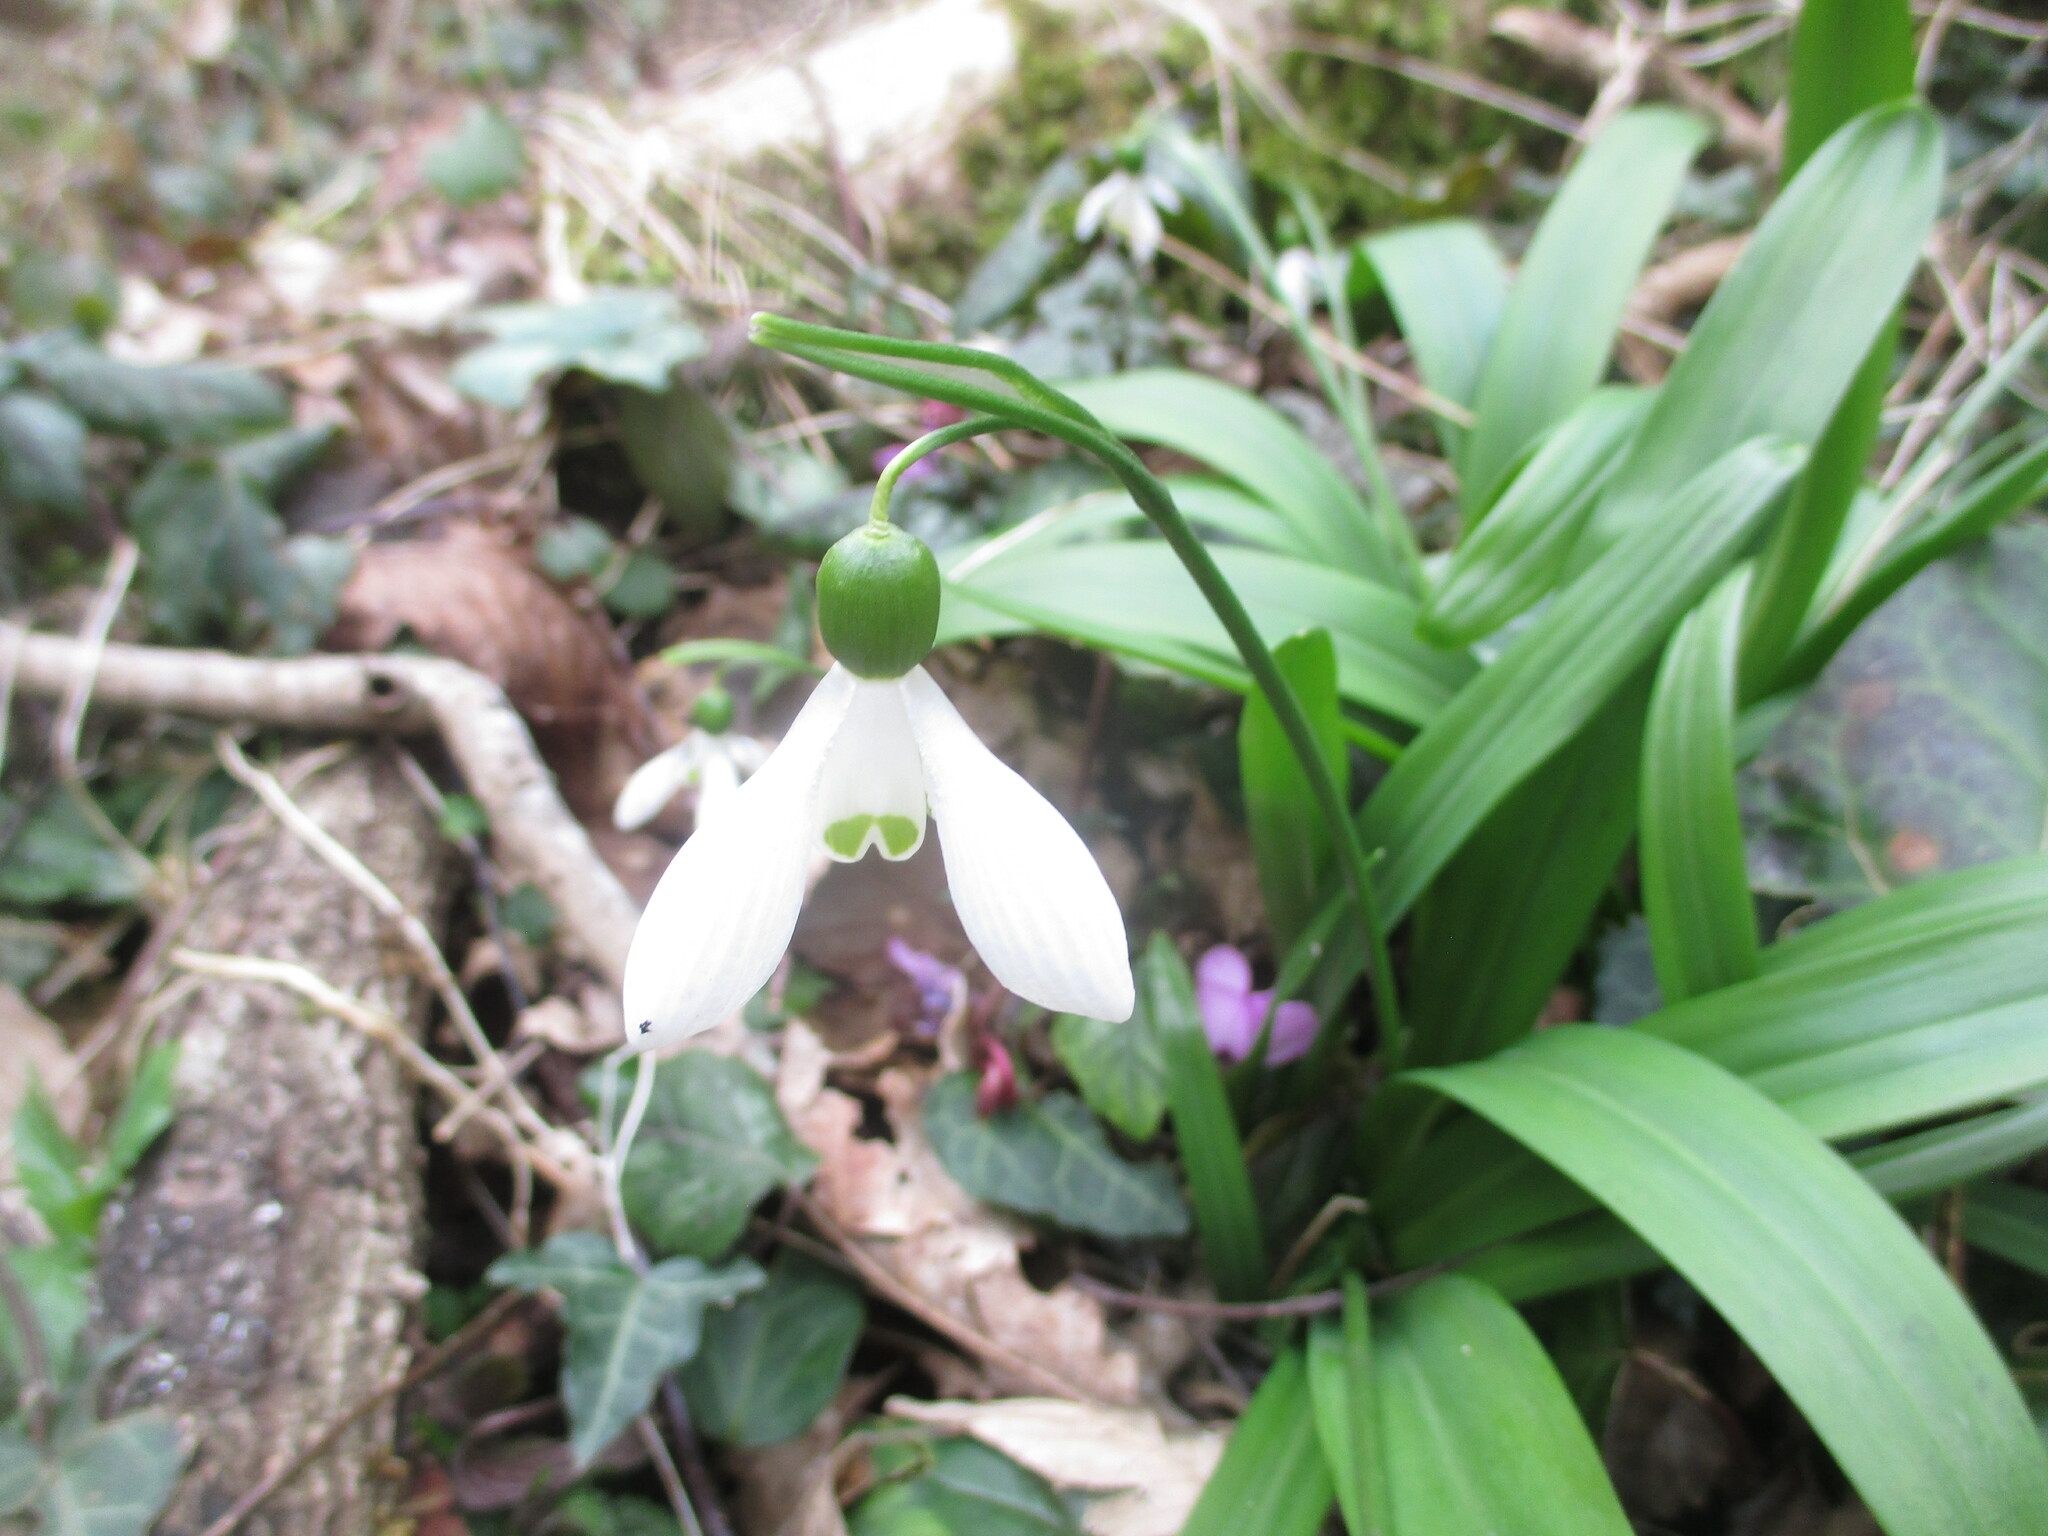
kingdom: Plantae
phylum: Tracheophyta
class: Liliopsida
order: Asparagales
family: Amaryllidaceae
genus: Galanthus
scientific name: Galanthus woronowii
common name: Green snowdrop
